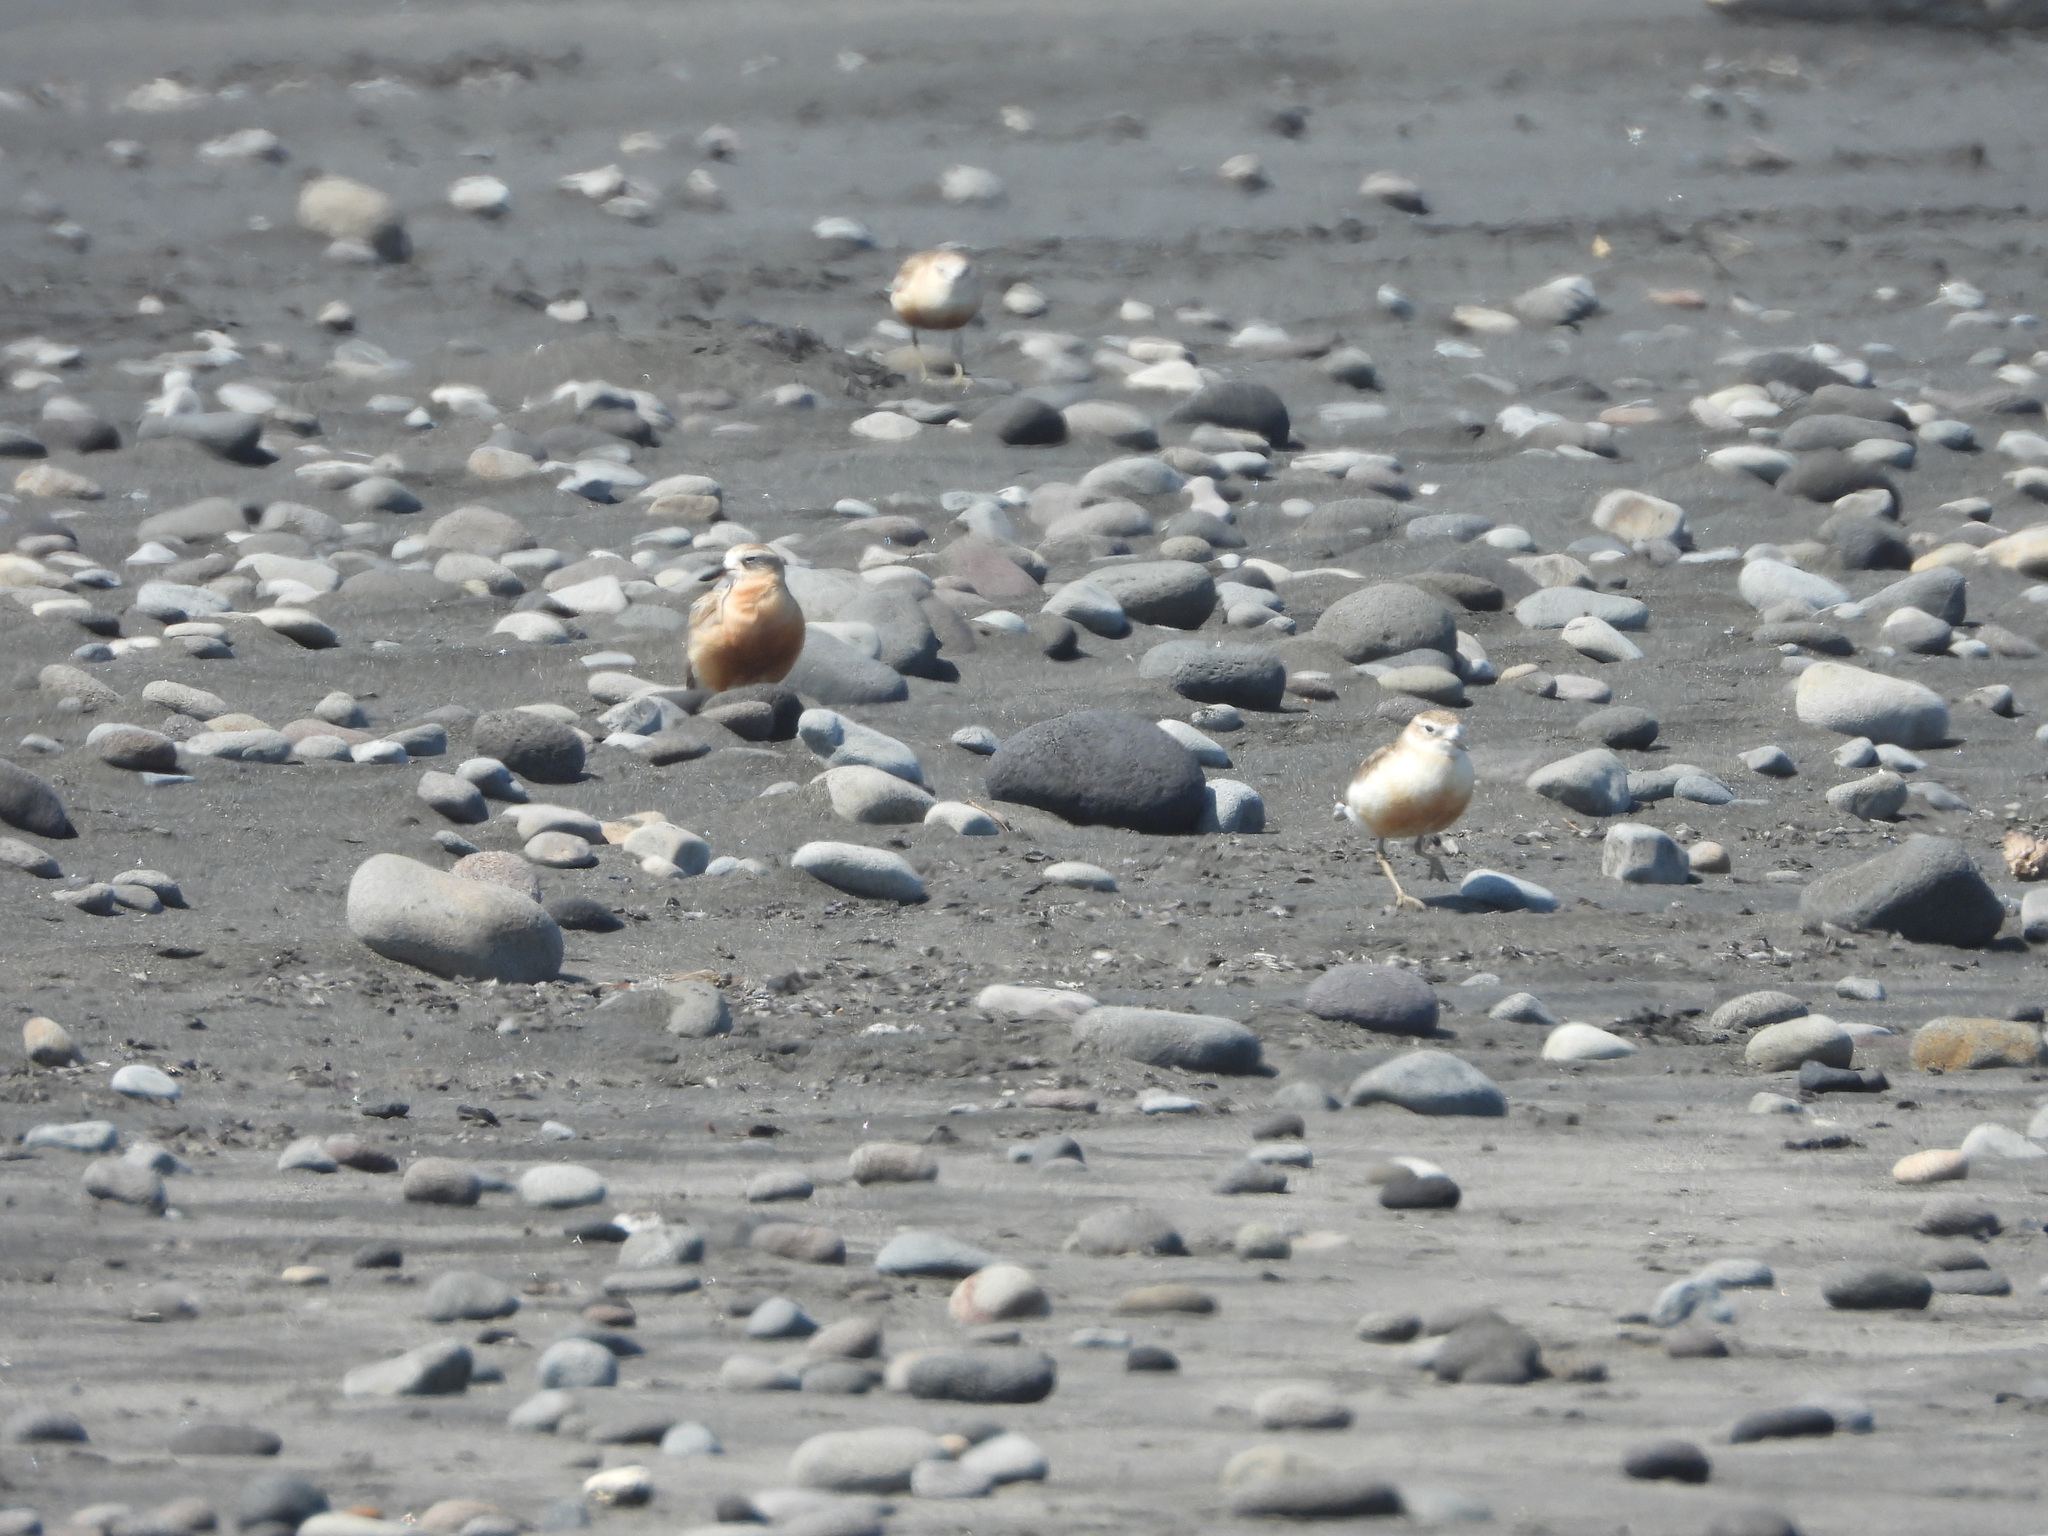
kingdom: Animalia
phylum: Chordata
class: Aves
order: Charadriiformes
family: Charadriidae
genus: Anarhynchus
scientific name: Anarhynchus
